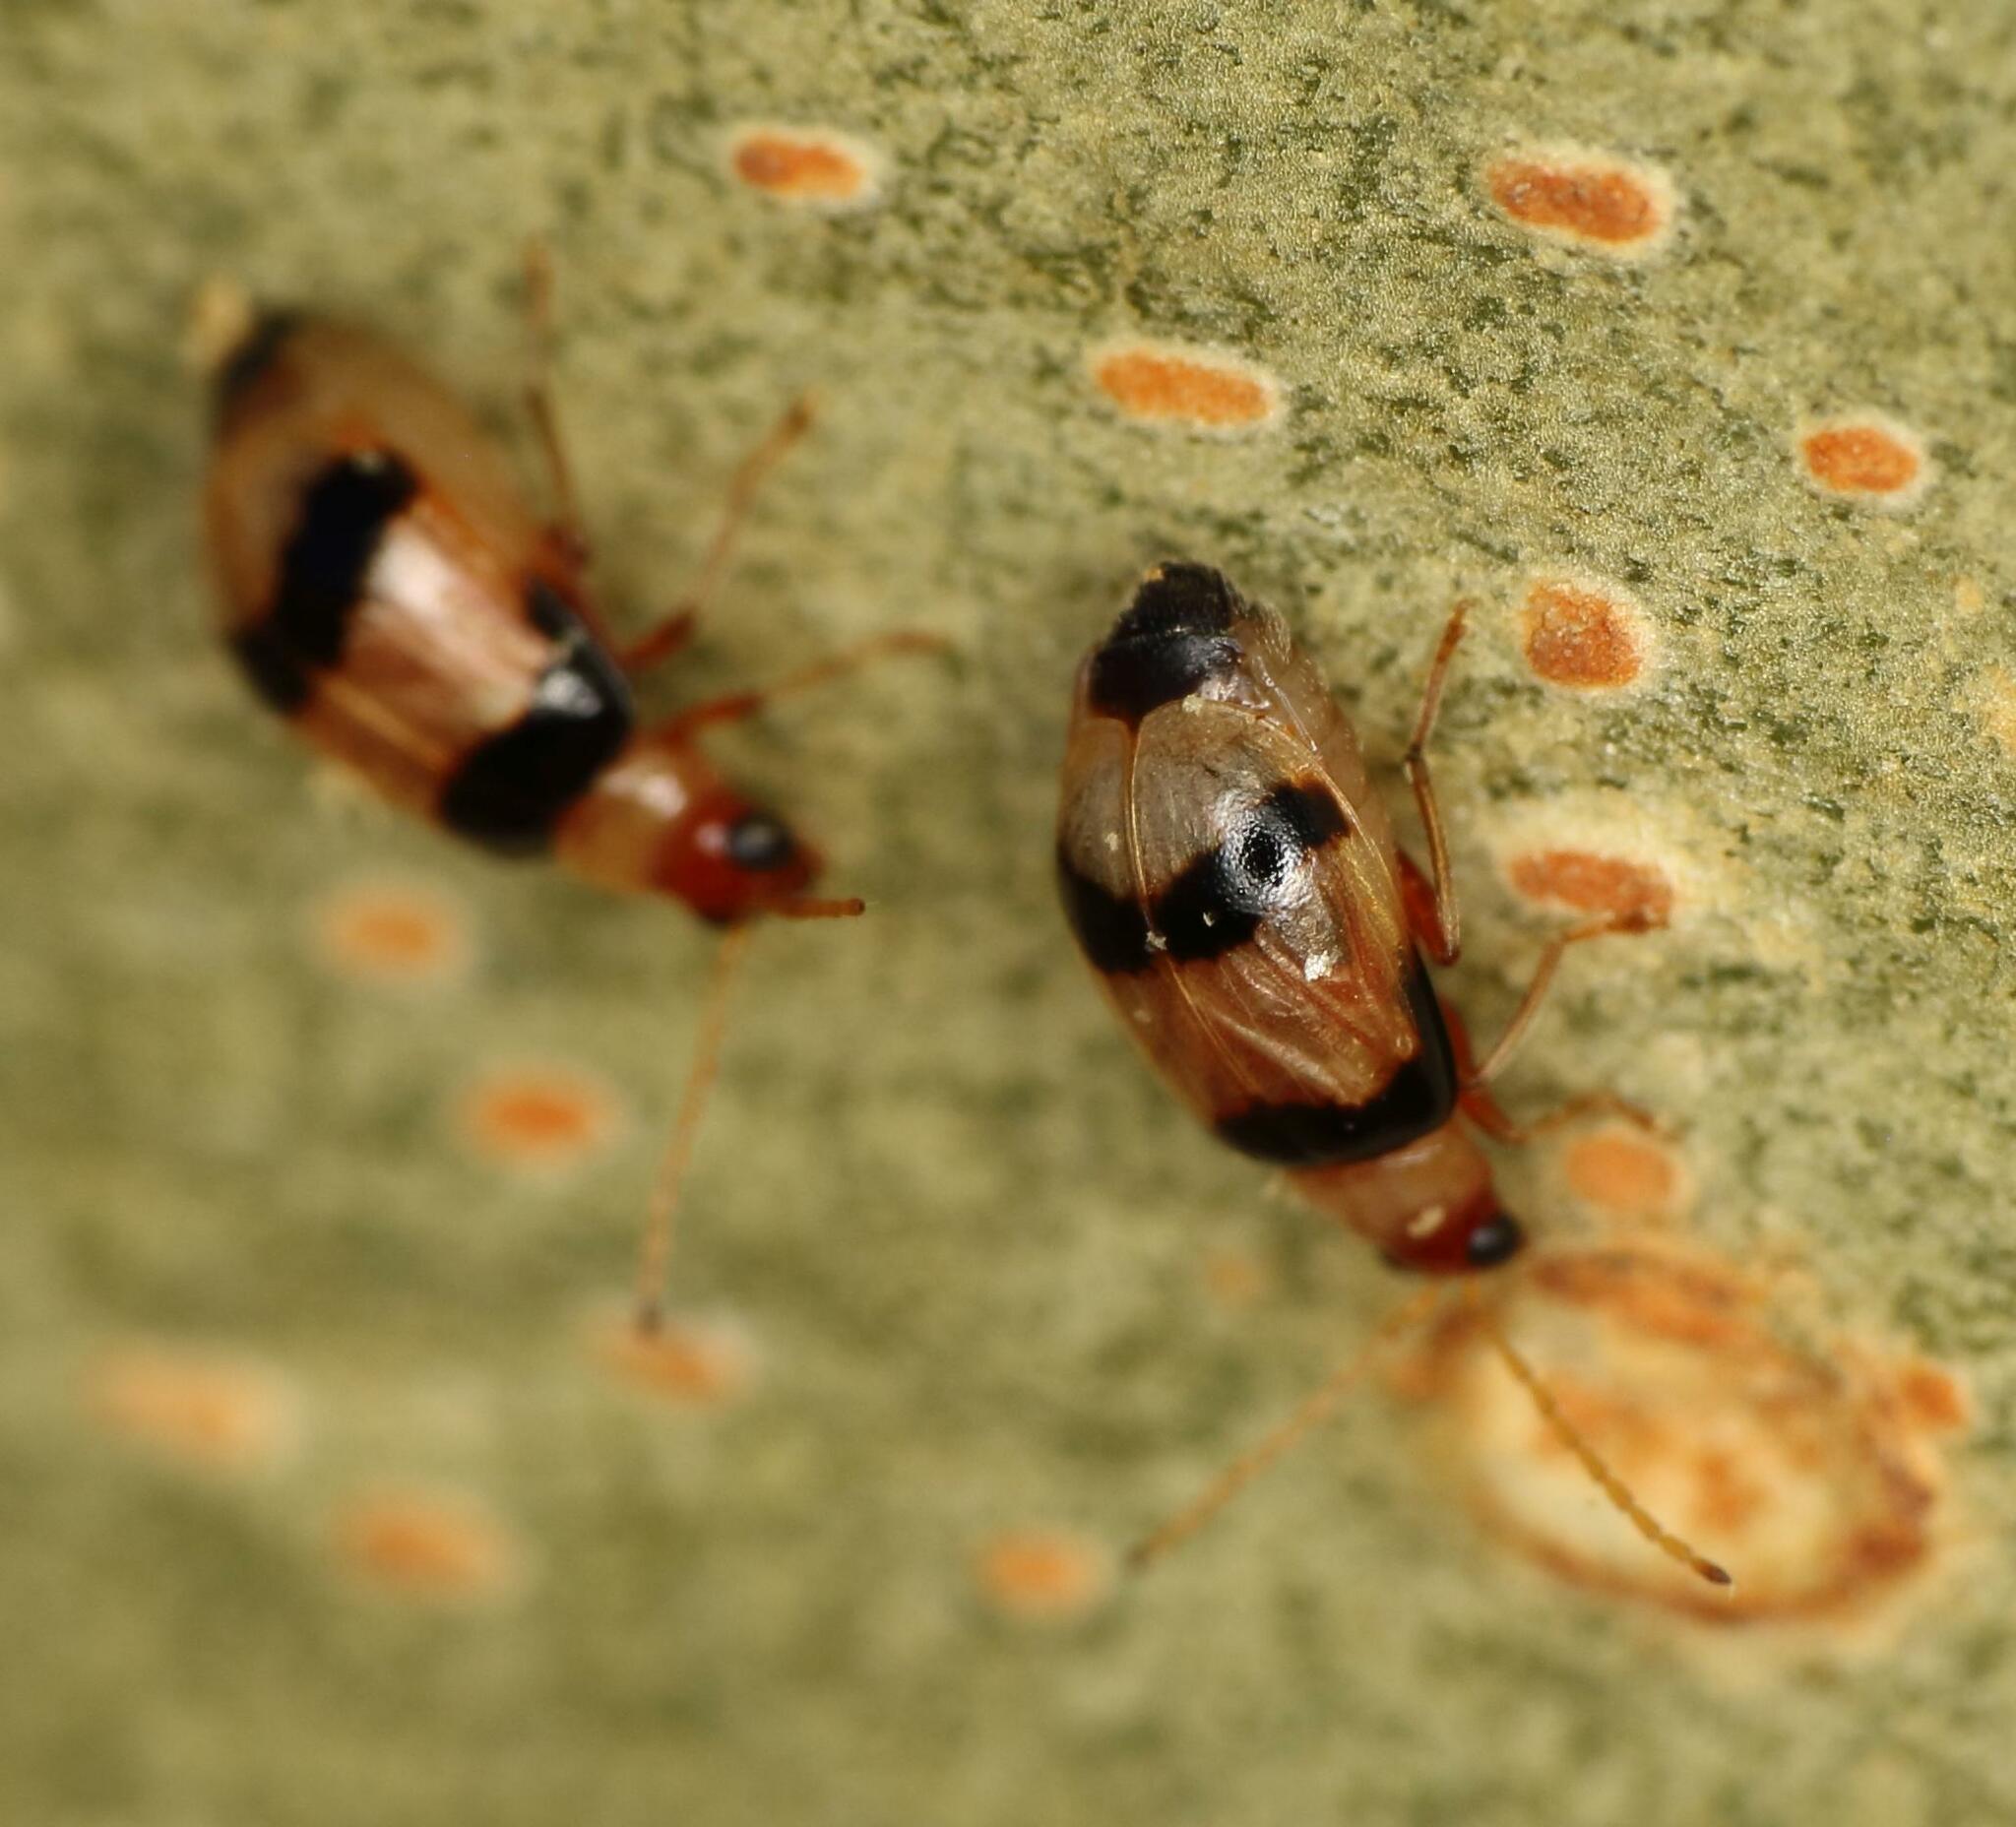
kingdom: Animalia
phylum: Arthropoda
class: Insecta
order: Coleoptera
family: Chrysomelidae
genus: Monolepta
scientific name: Monolepta
